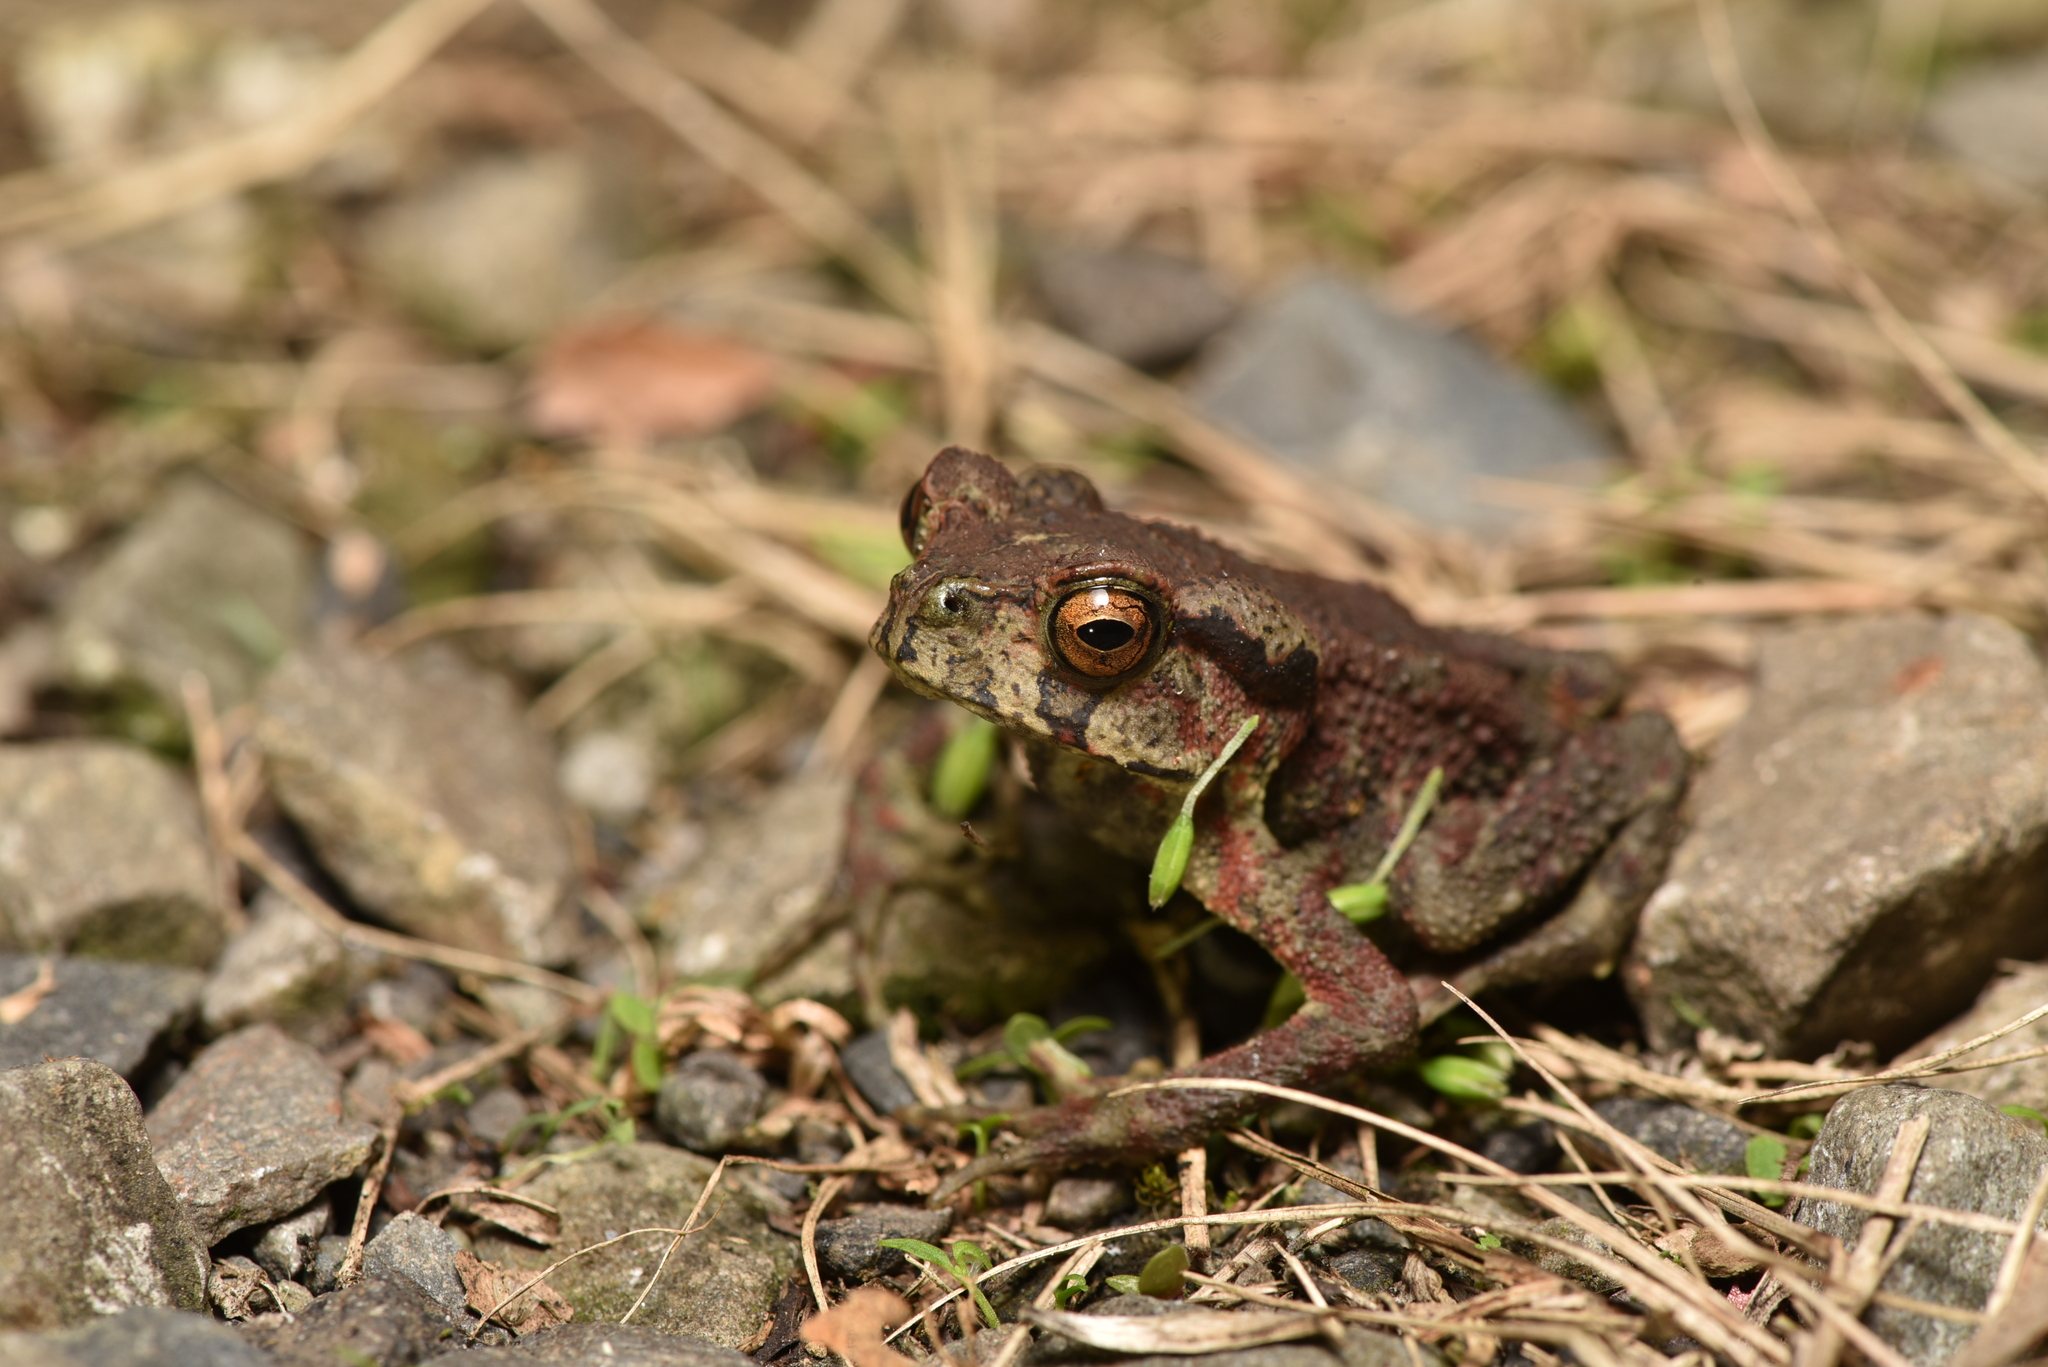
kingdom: Animalia
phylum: Chordata
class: Amphibia
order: Anura
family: Bufonidae
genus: Bufo
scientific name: Bufo bankorensis
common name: Bankor toad
